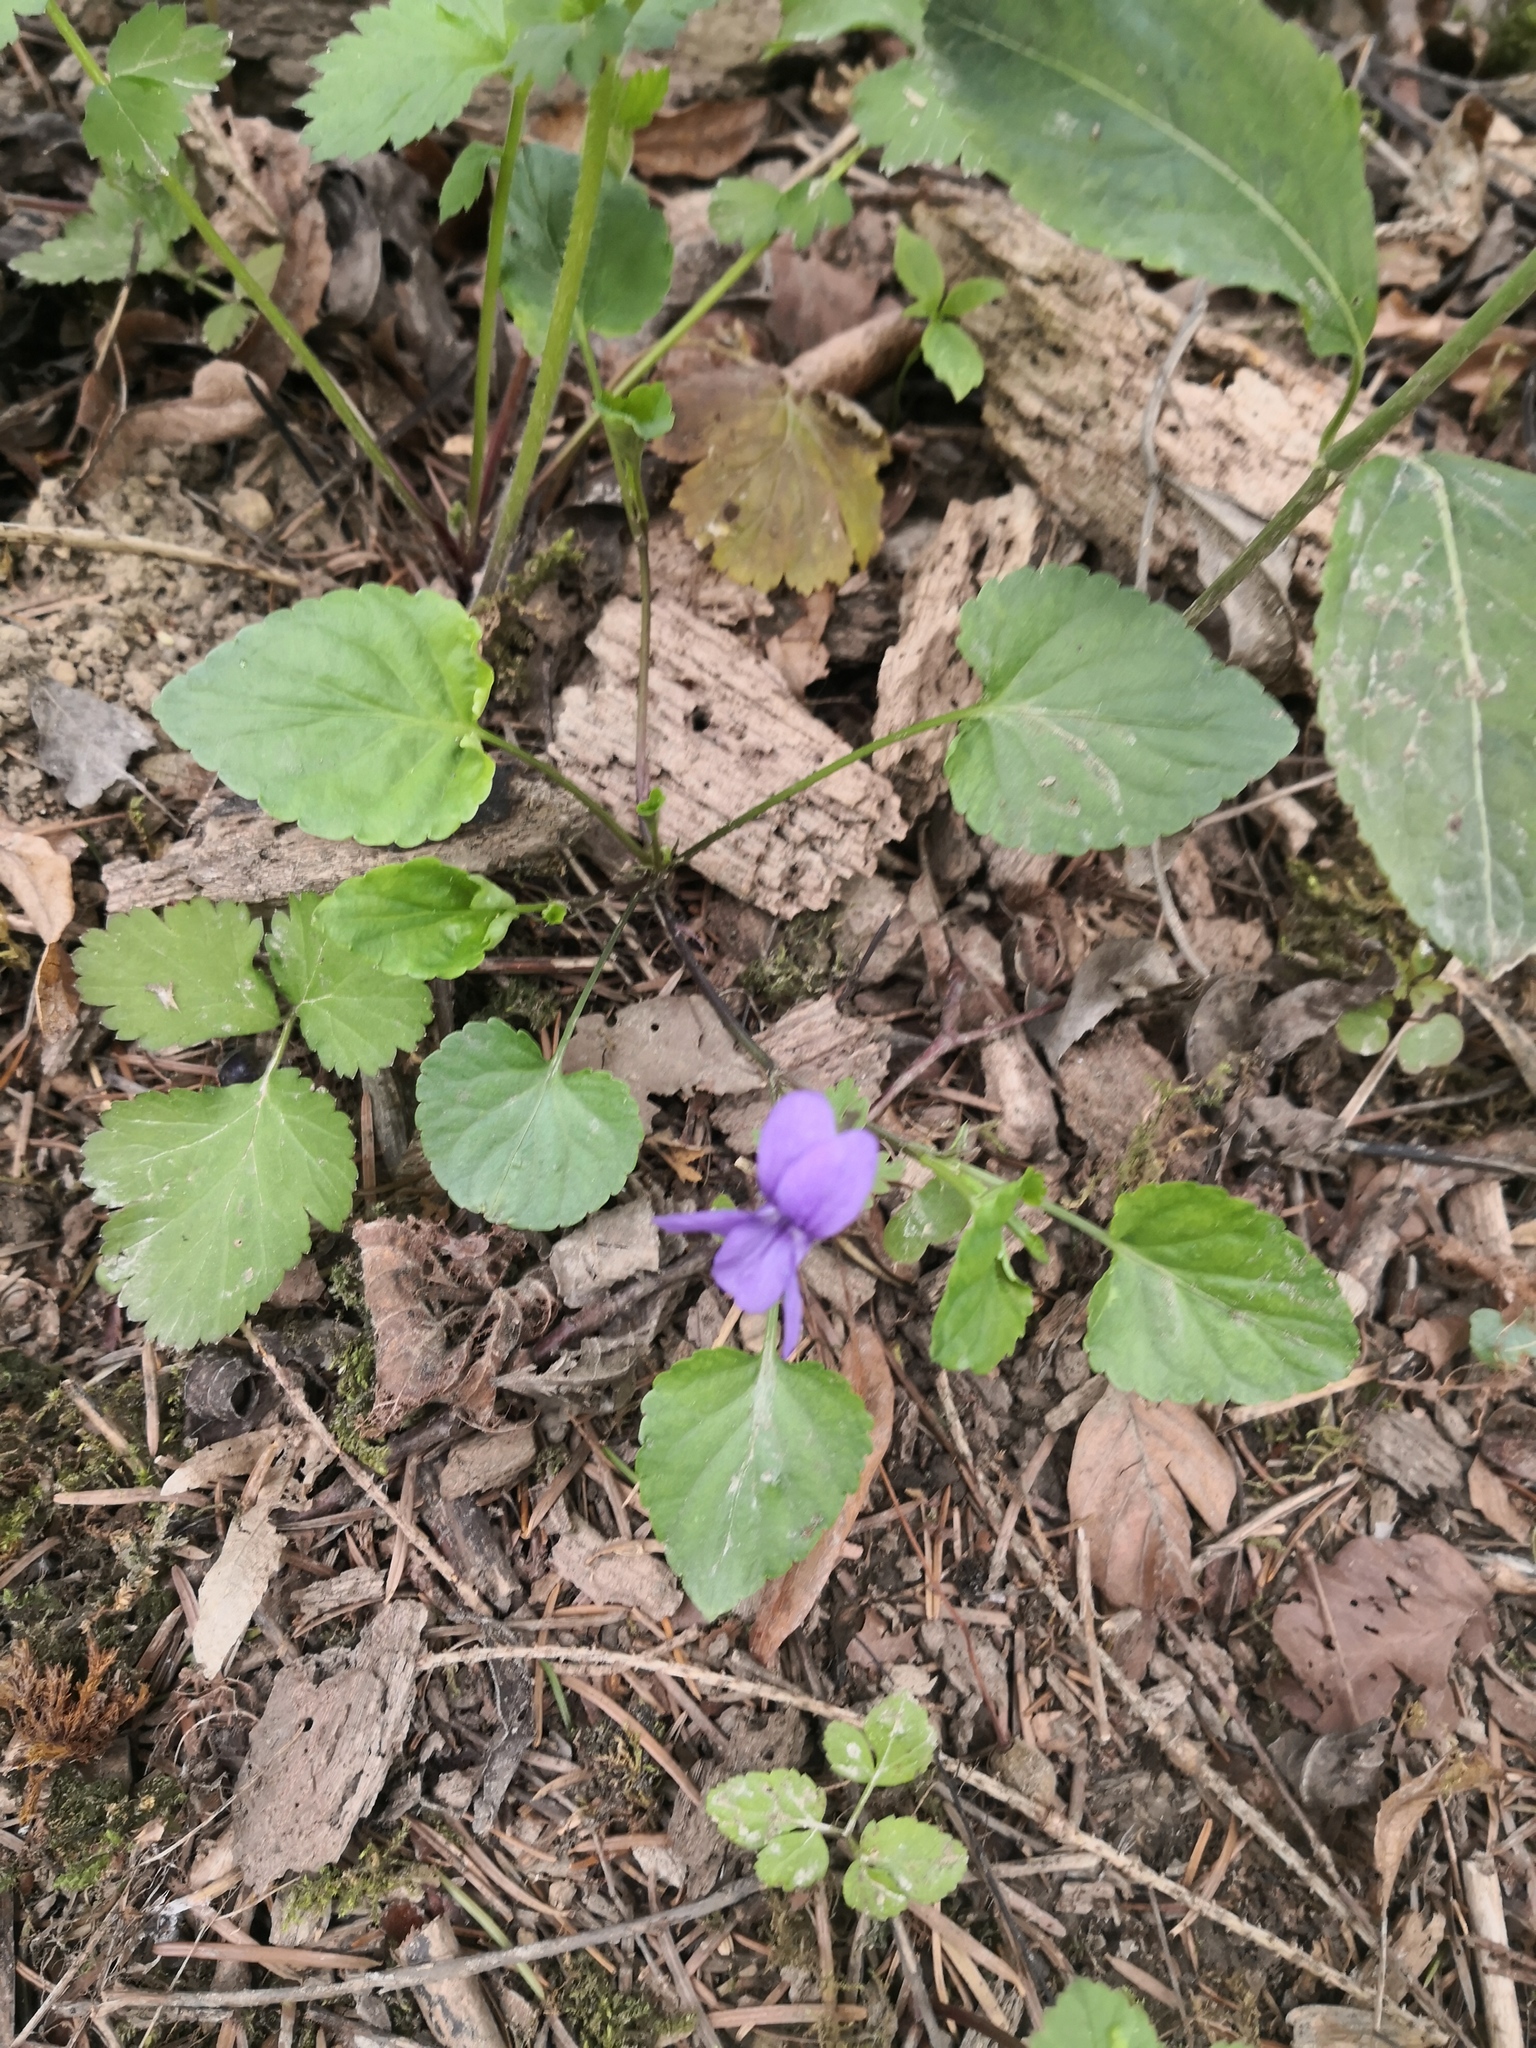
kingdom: Plantae
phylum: Tracheophyta
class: Magnoliopsida
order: Malpighiales
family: Violaceae
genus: Viola
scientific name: Viola reichenbachiana
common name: Early dog-violet
